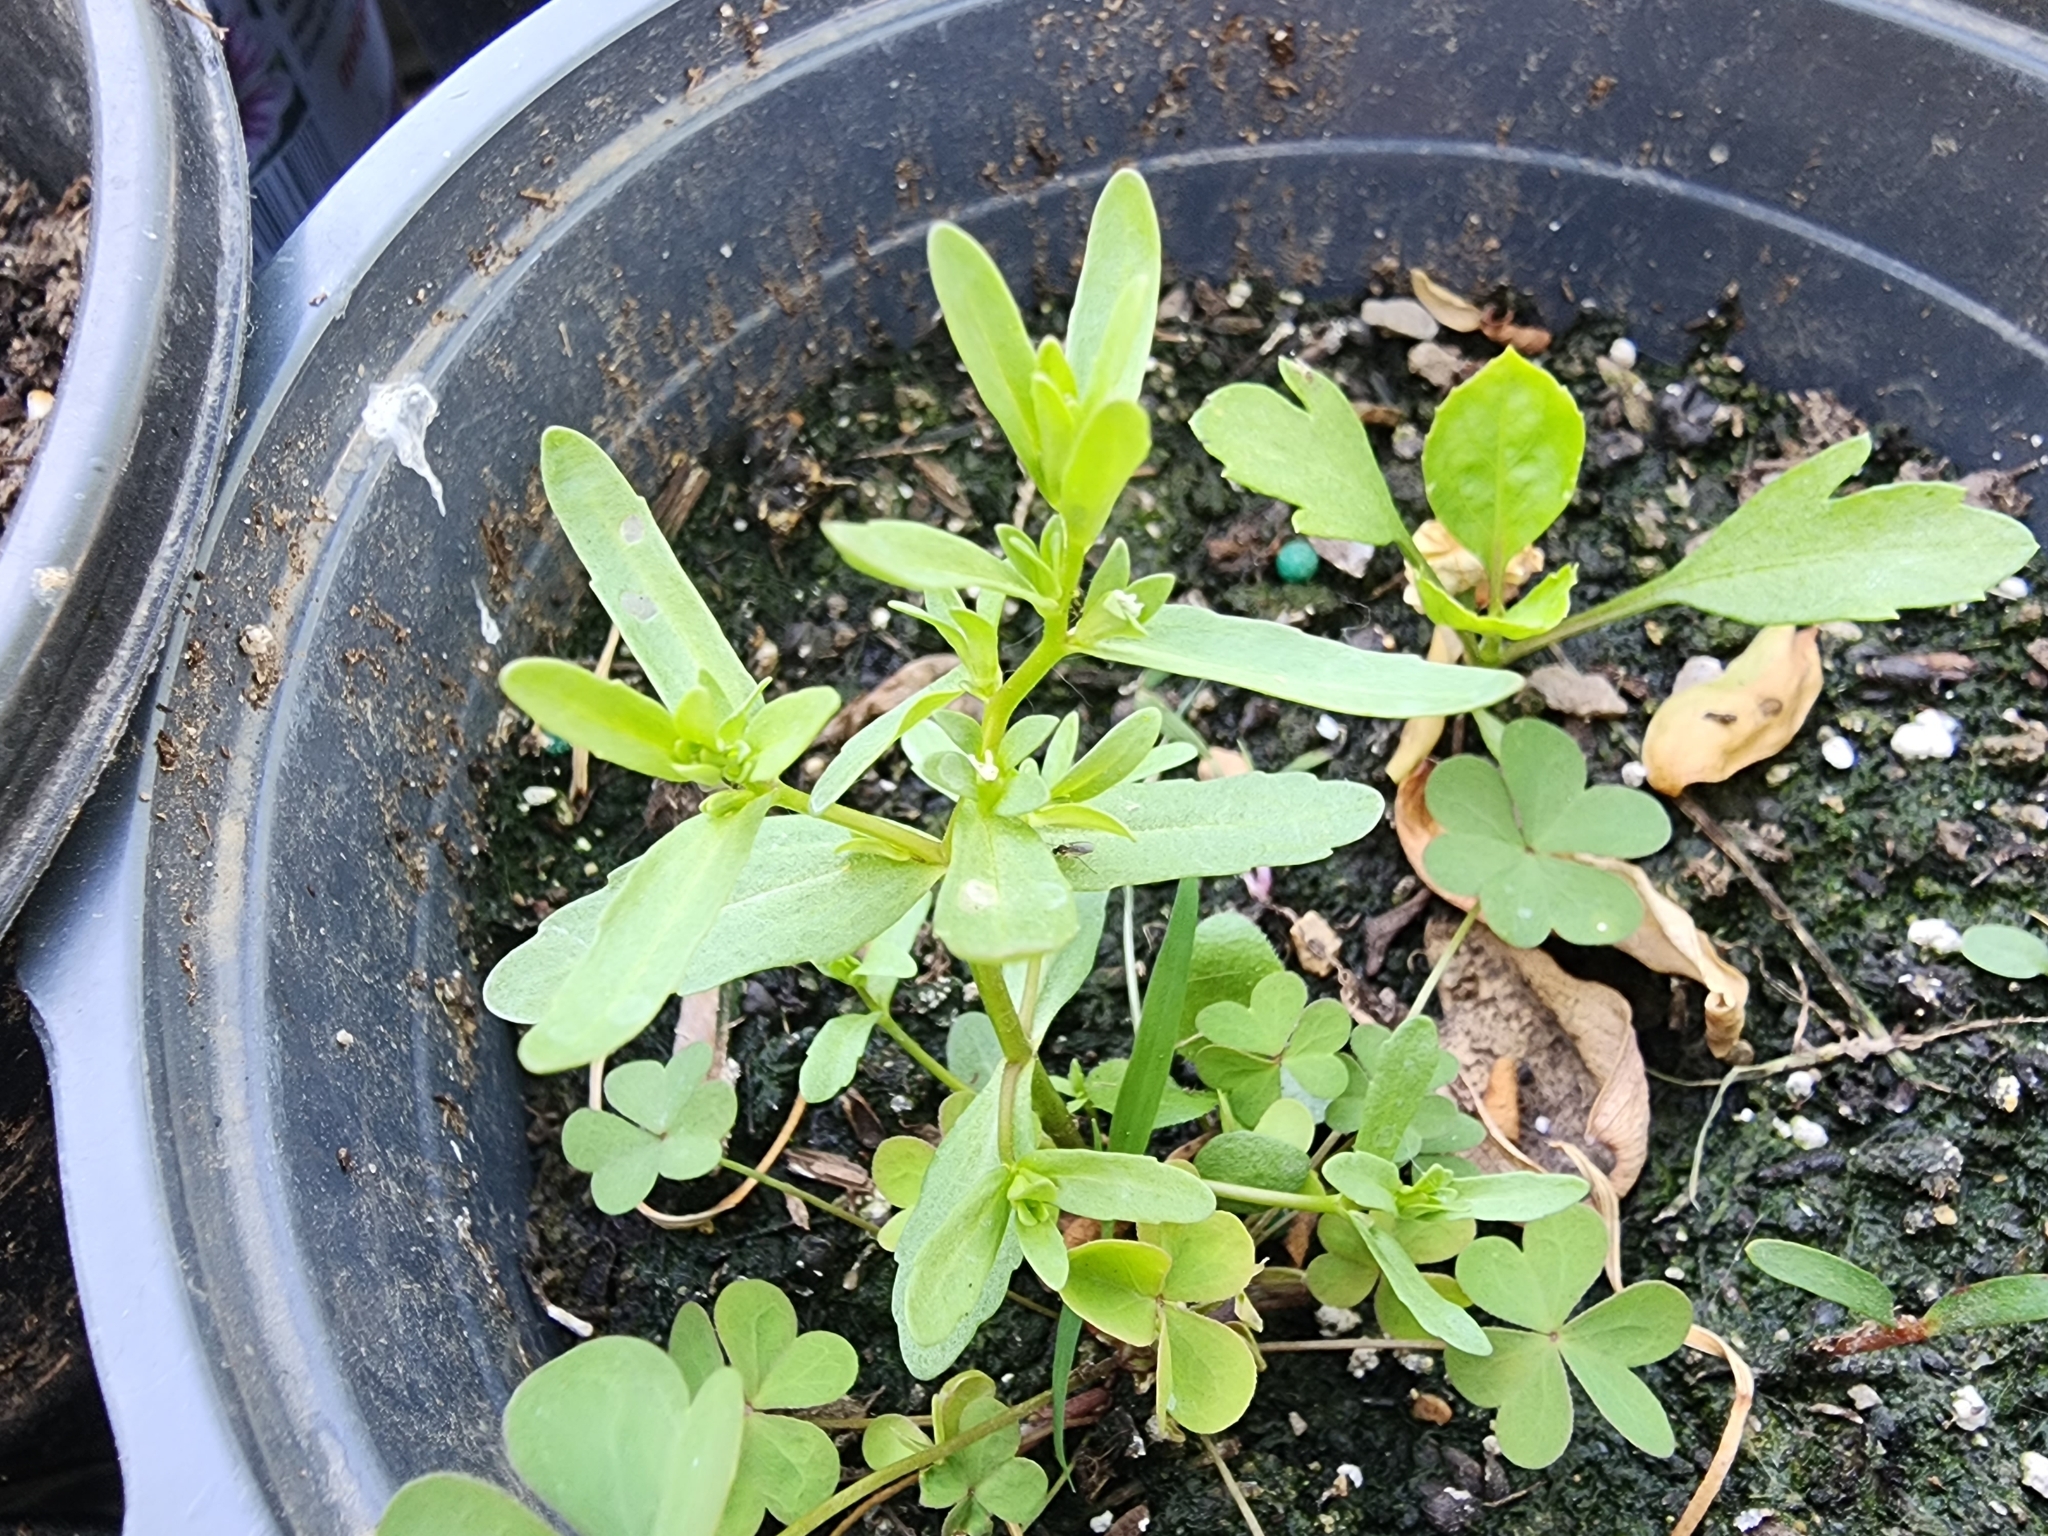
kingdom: Plantae
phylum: Tracheophyta
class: Magnoliopsida
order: Lamiales
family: Plantaginaceae
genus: Veronica
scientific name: Veronica peregrina
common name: Neckweed
